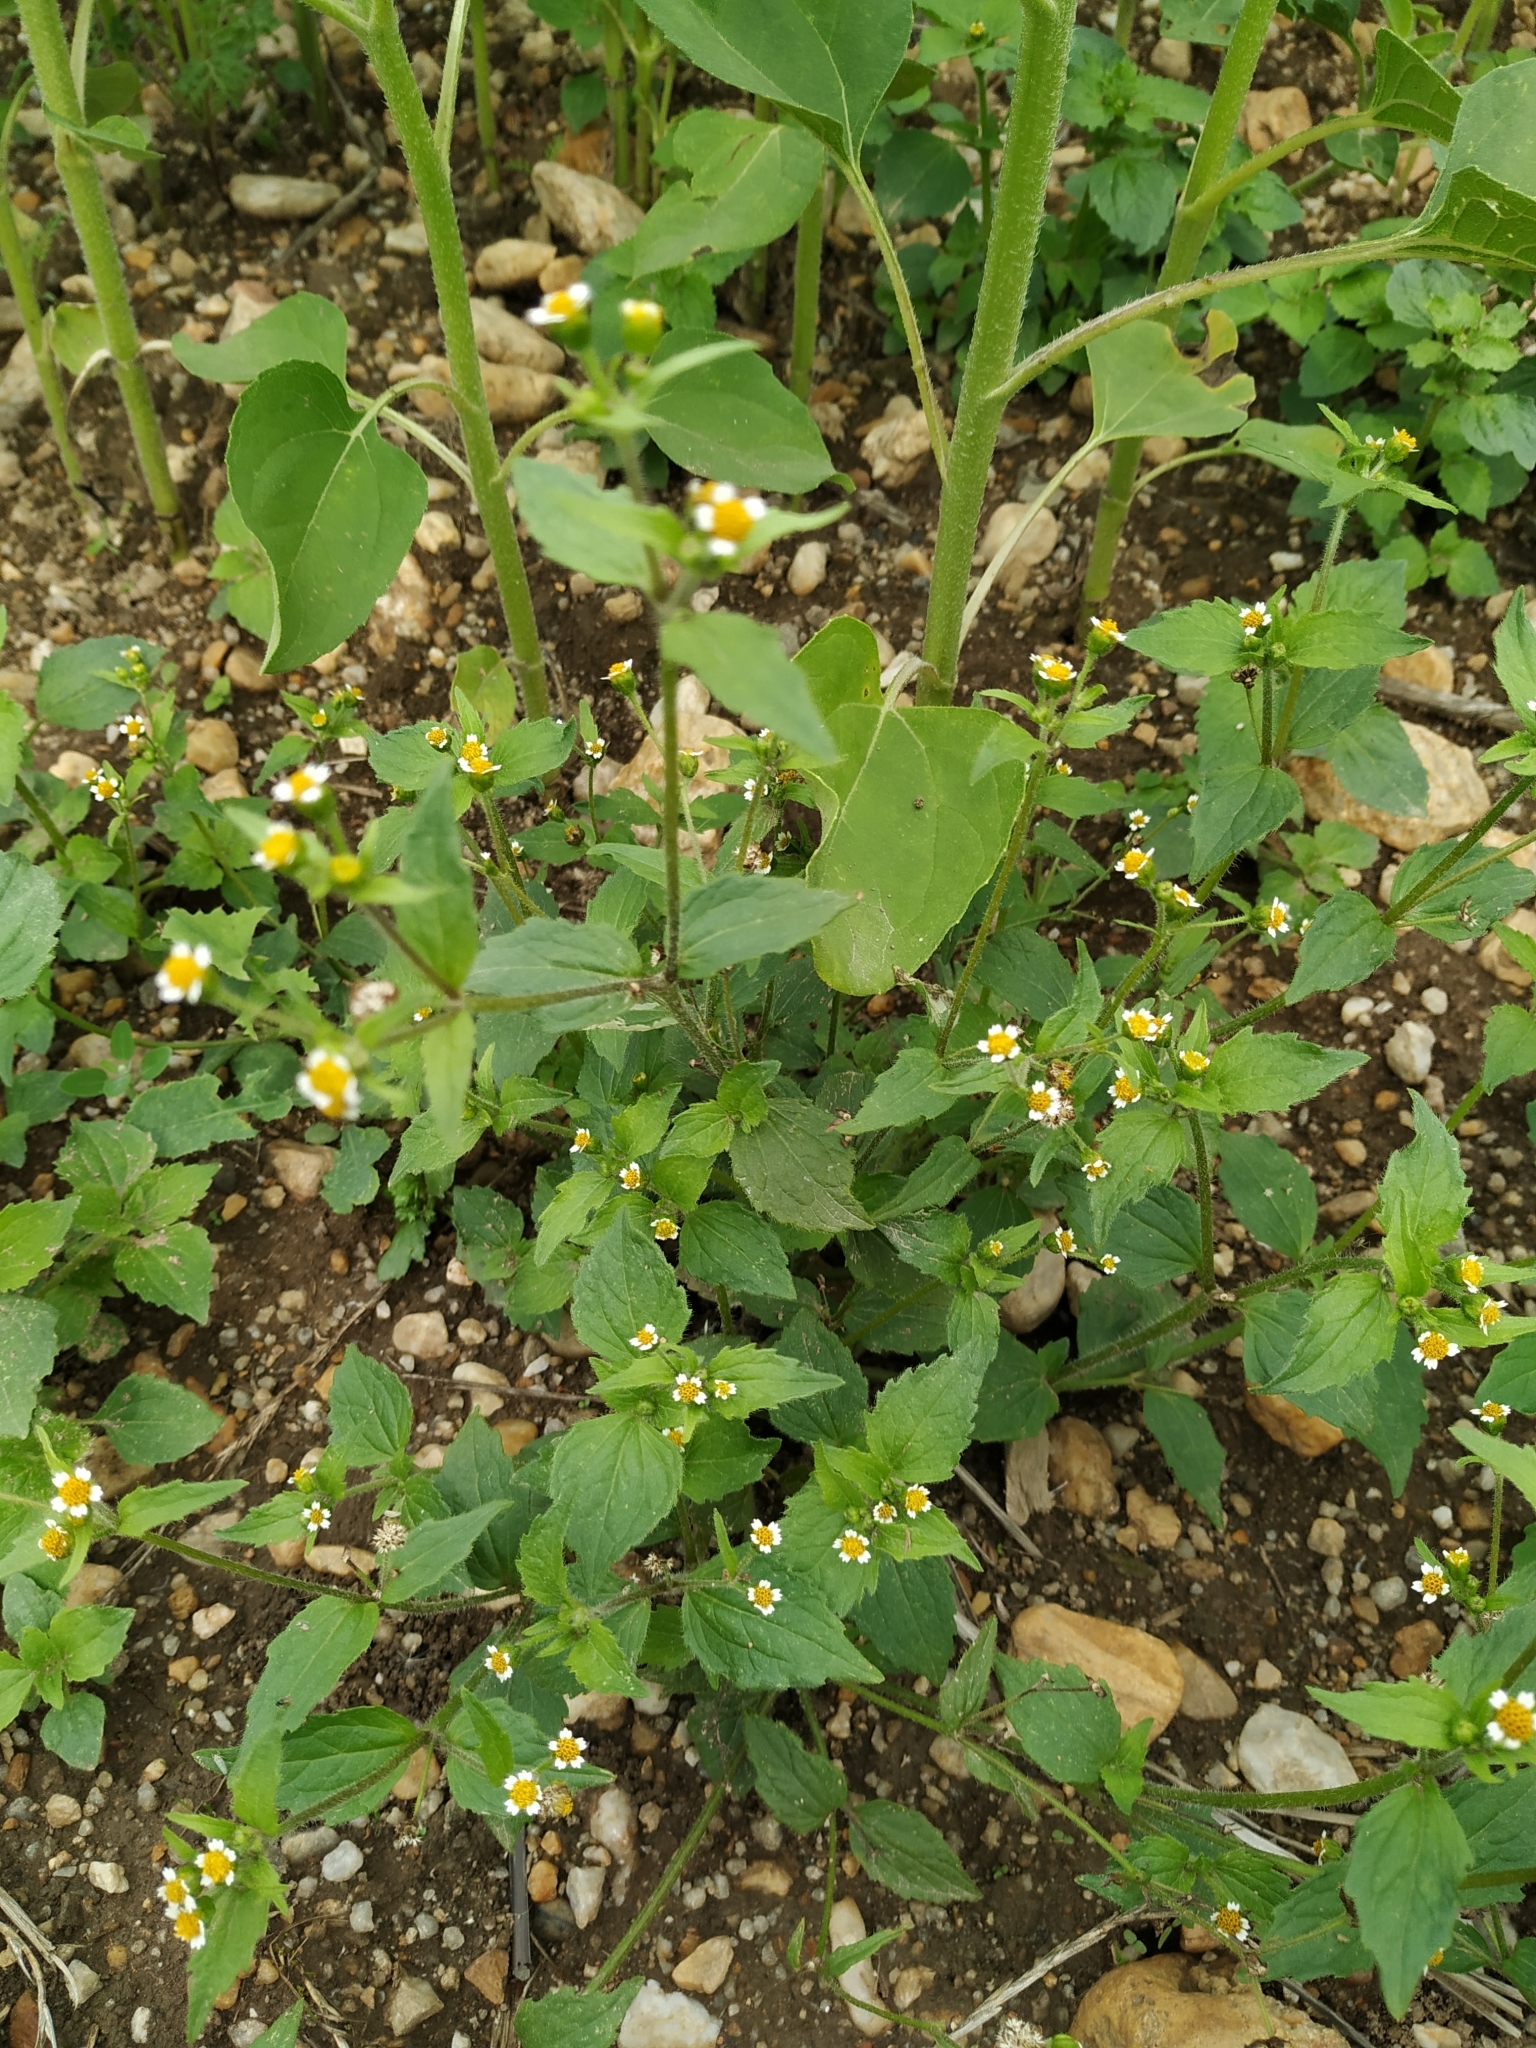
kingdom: Plantae
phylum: Tracheophyta
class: Magnoliopsida
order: Asterales
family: Asteraceae
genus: Galinsoga
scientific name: Galinsoga quadriradiata
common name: Shaggy soldier
